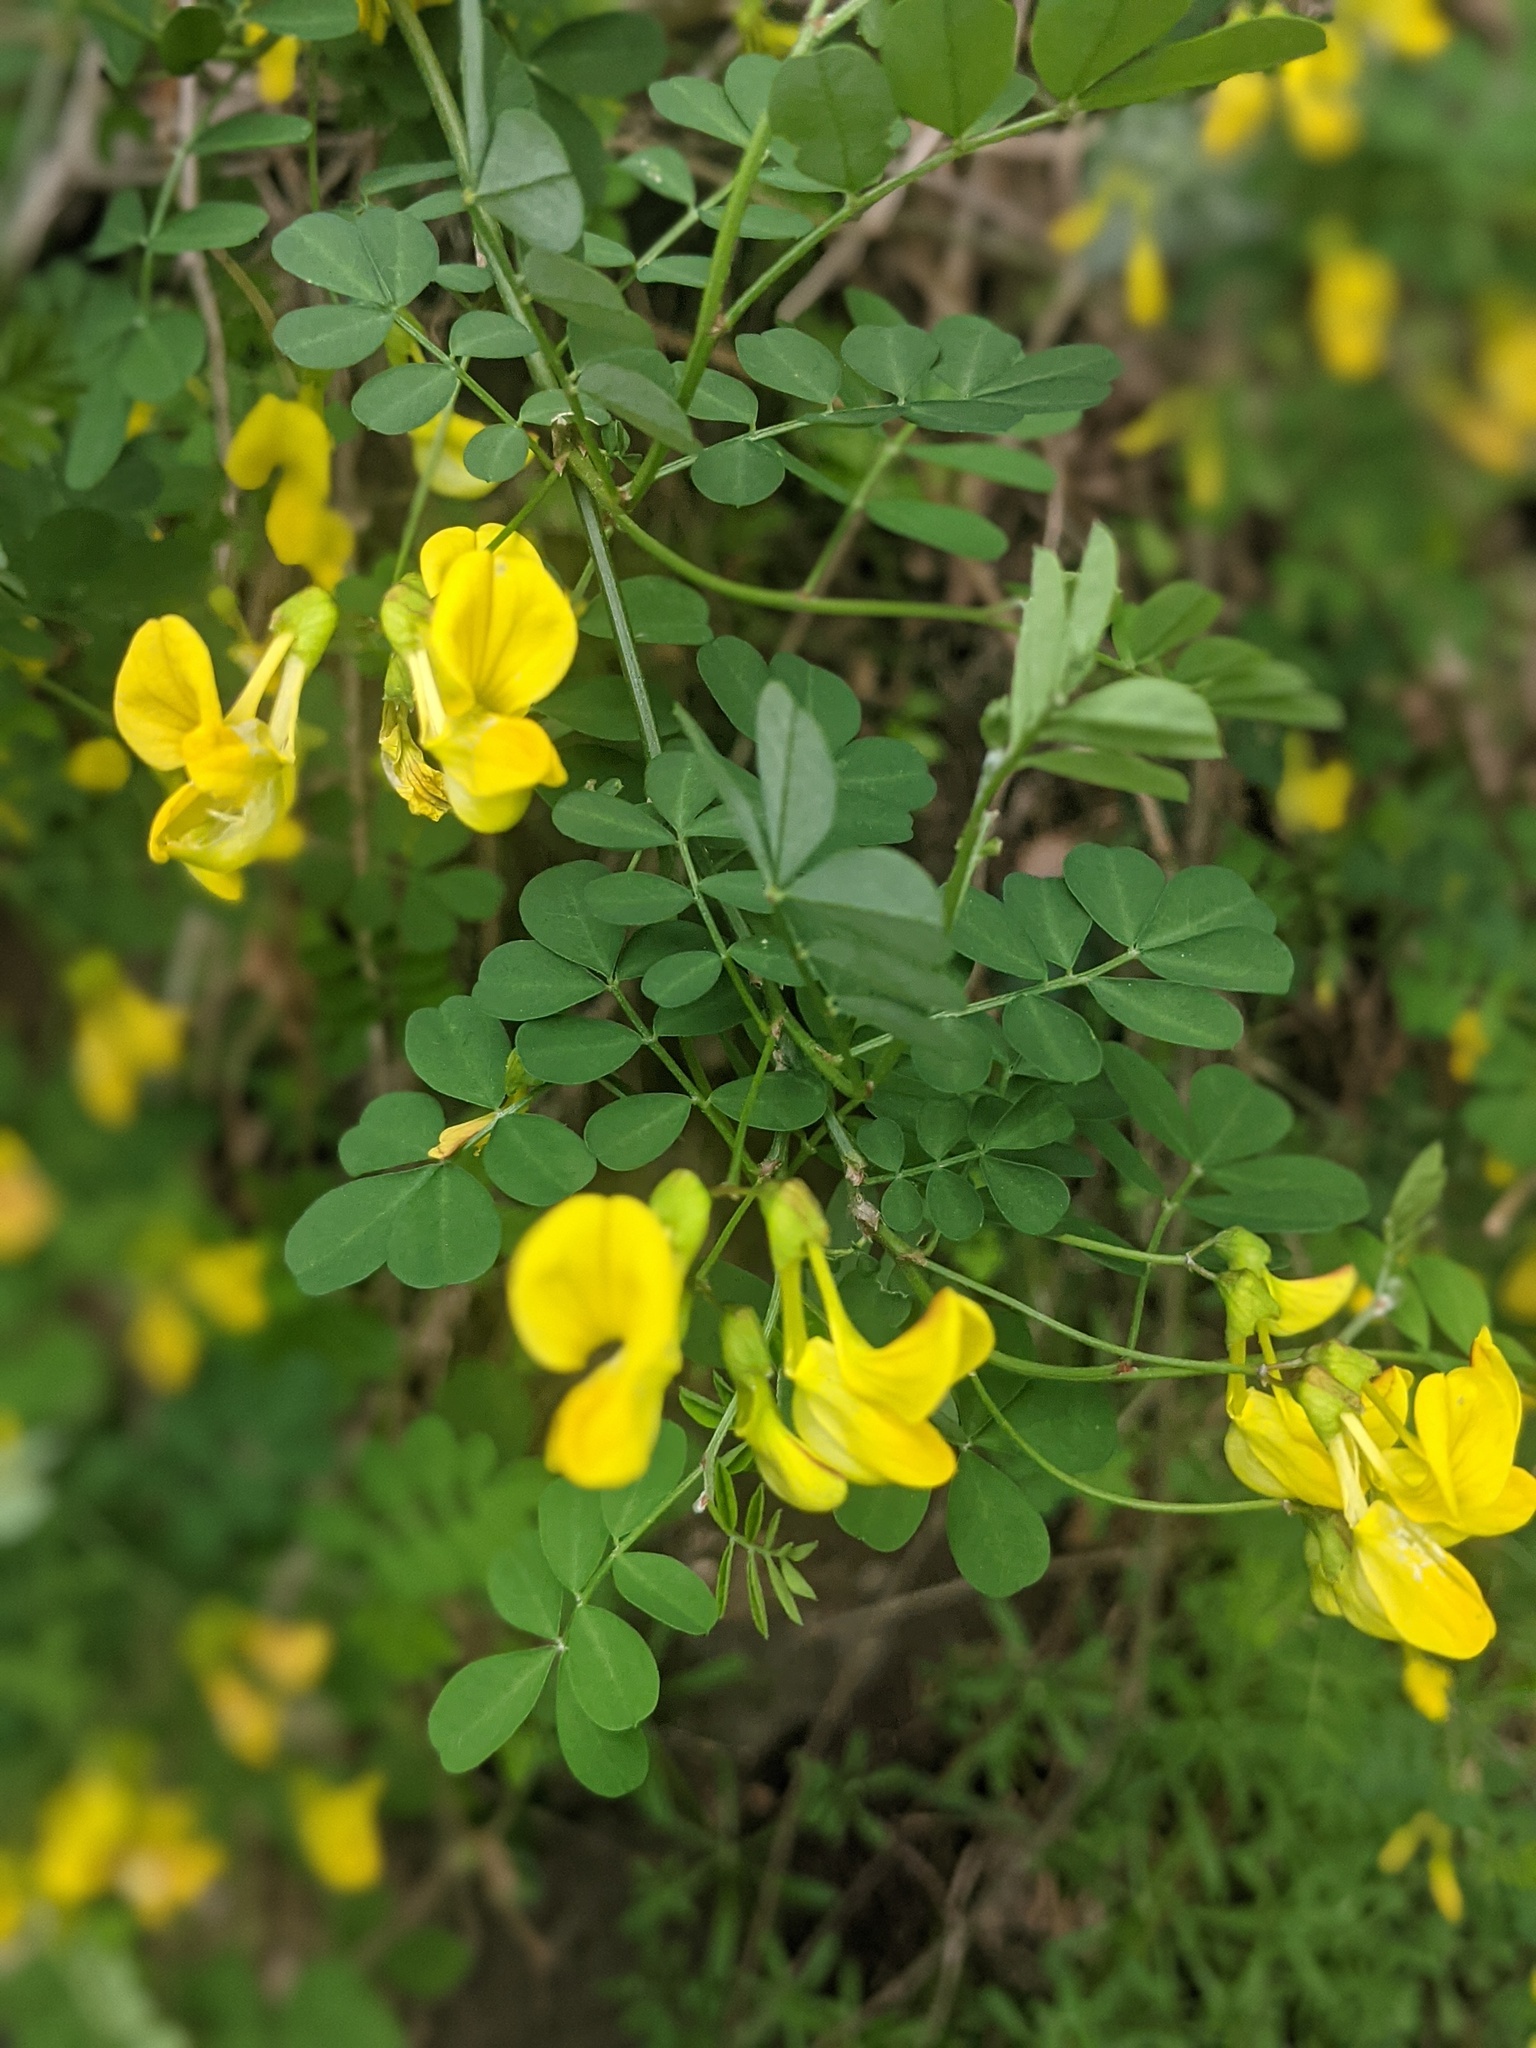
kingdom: Plantae
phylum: Tracheophyta
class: Magnoliopsida
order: Fabales
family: Fabaceae
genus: Hippocrepis
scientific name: Hippocrepis emerus
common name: Scorpion senna
